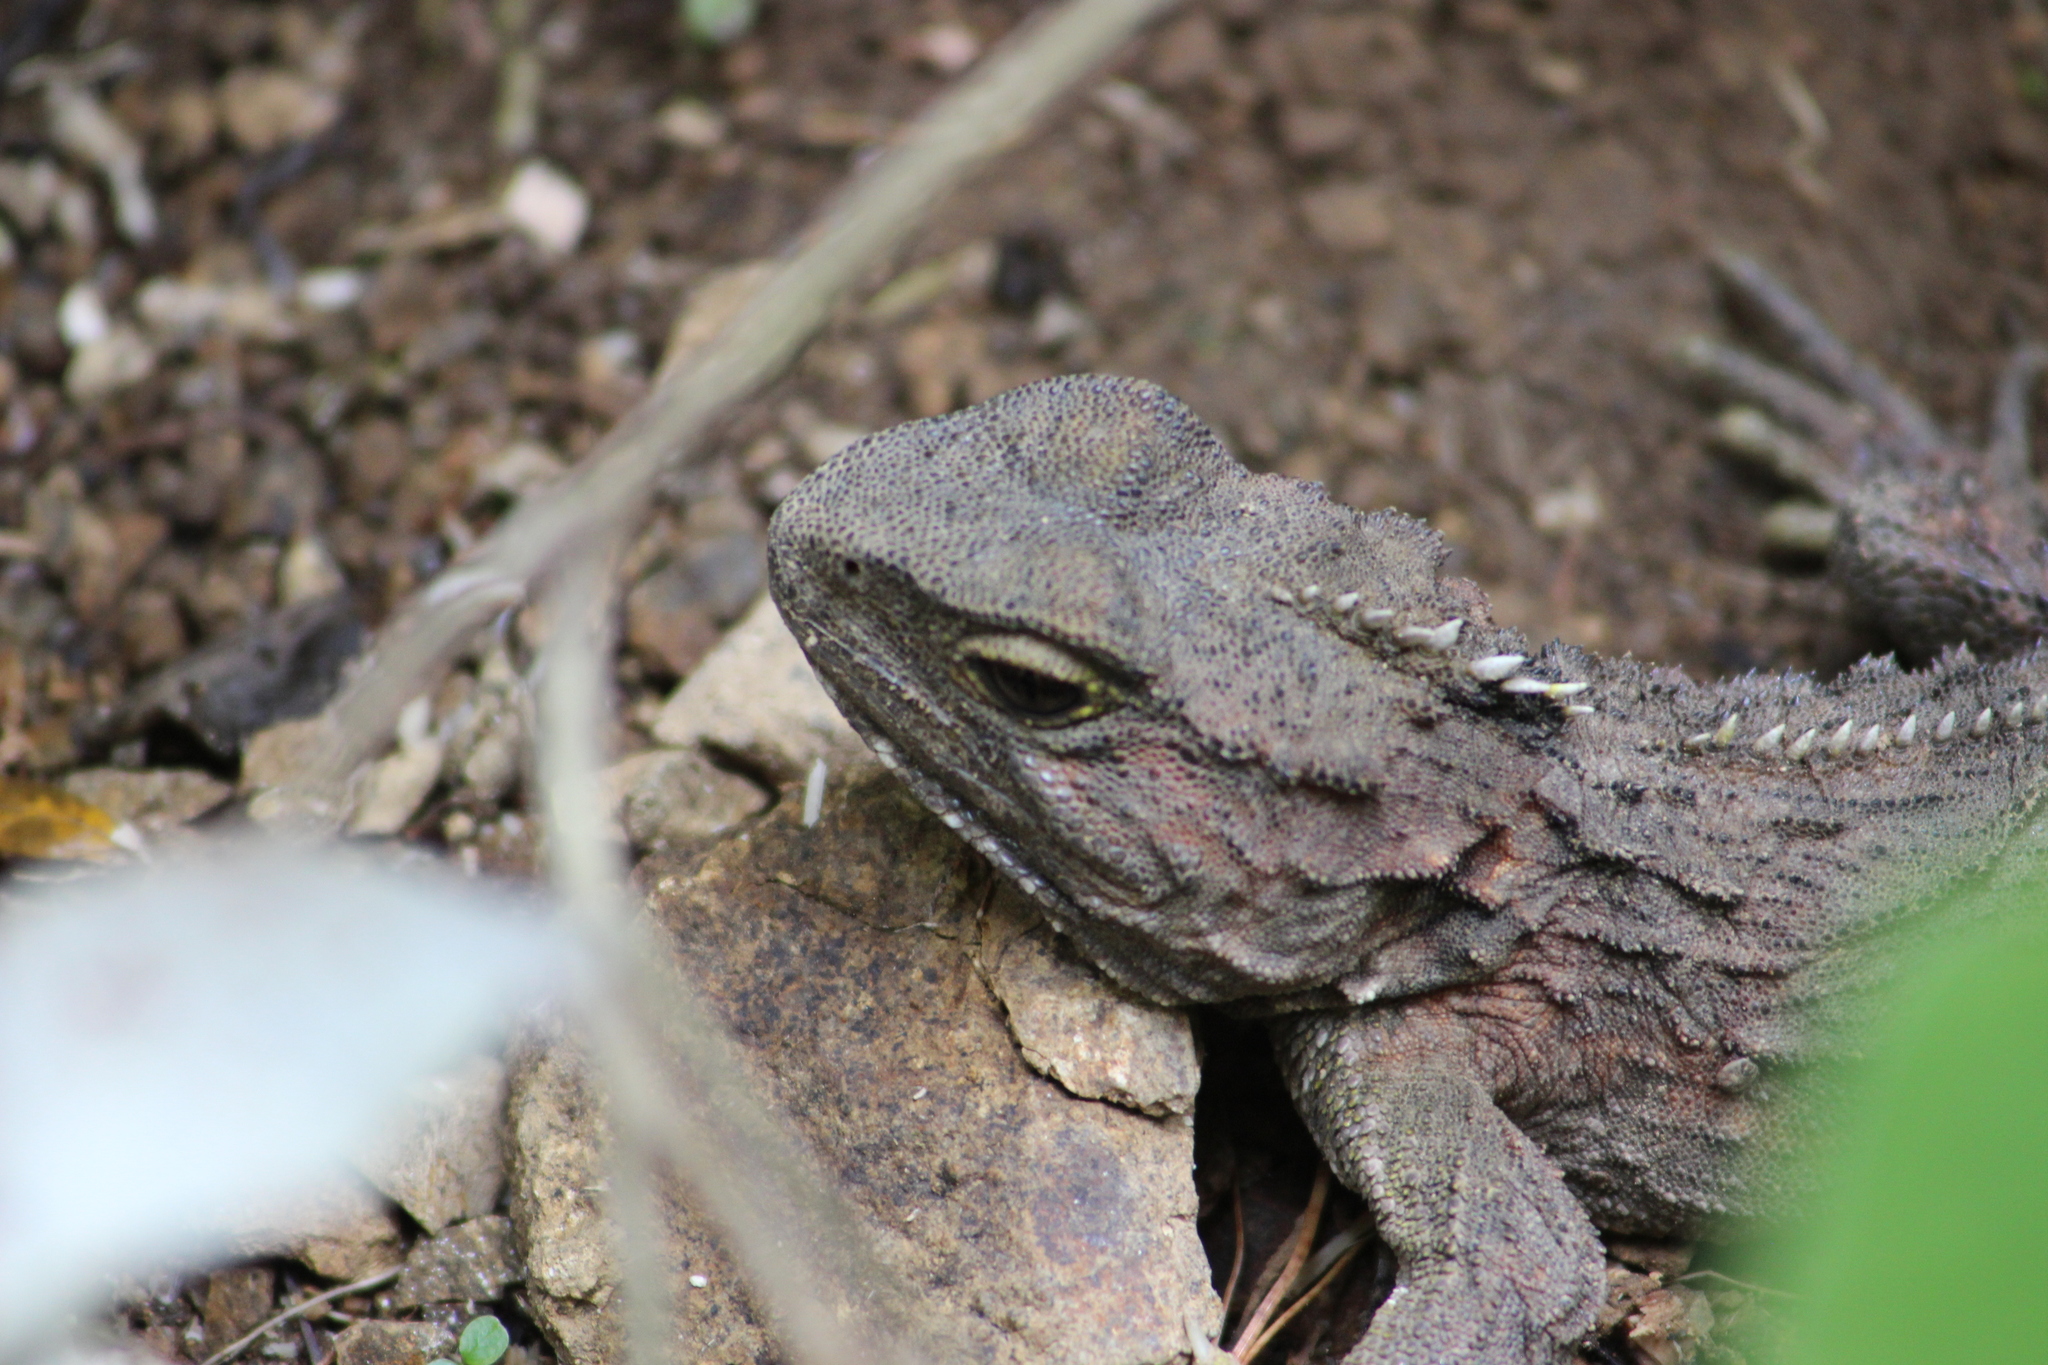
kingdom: Animalia
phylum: Chordata
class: Sphenodontia
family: Sphenodontidae
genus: Sphenodon
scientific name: Sphenodon punctatus
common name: Tuatara
